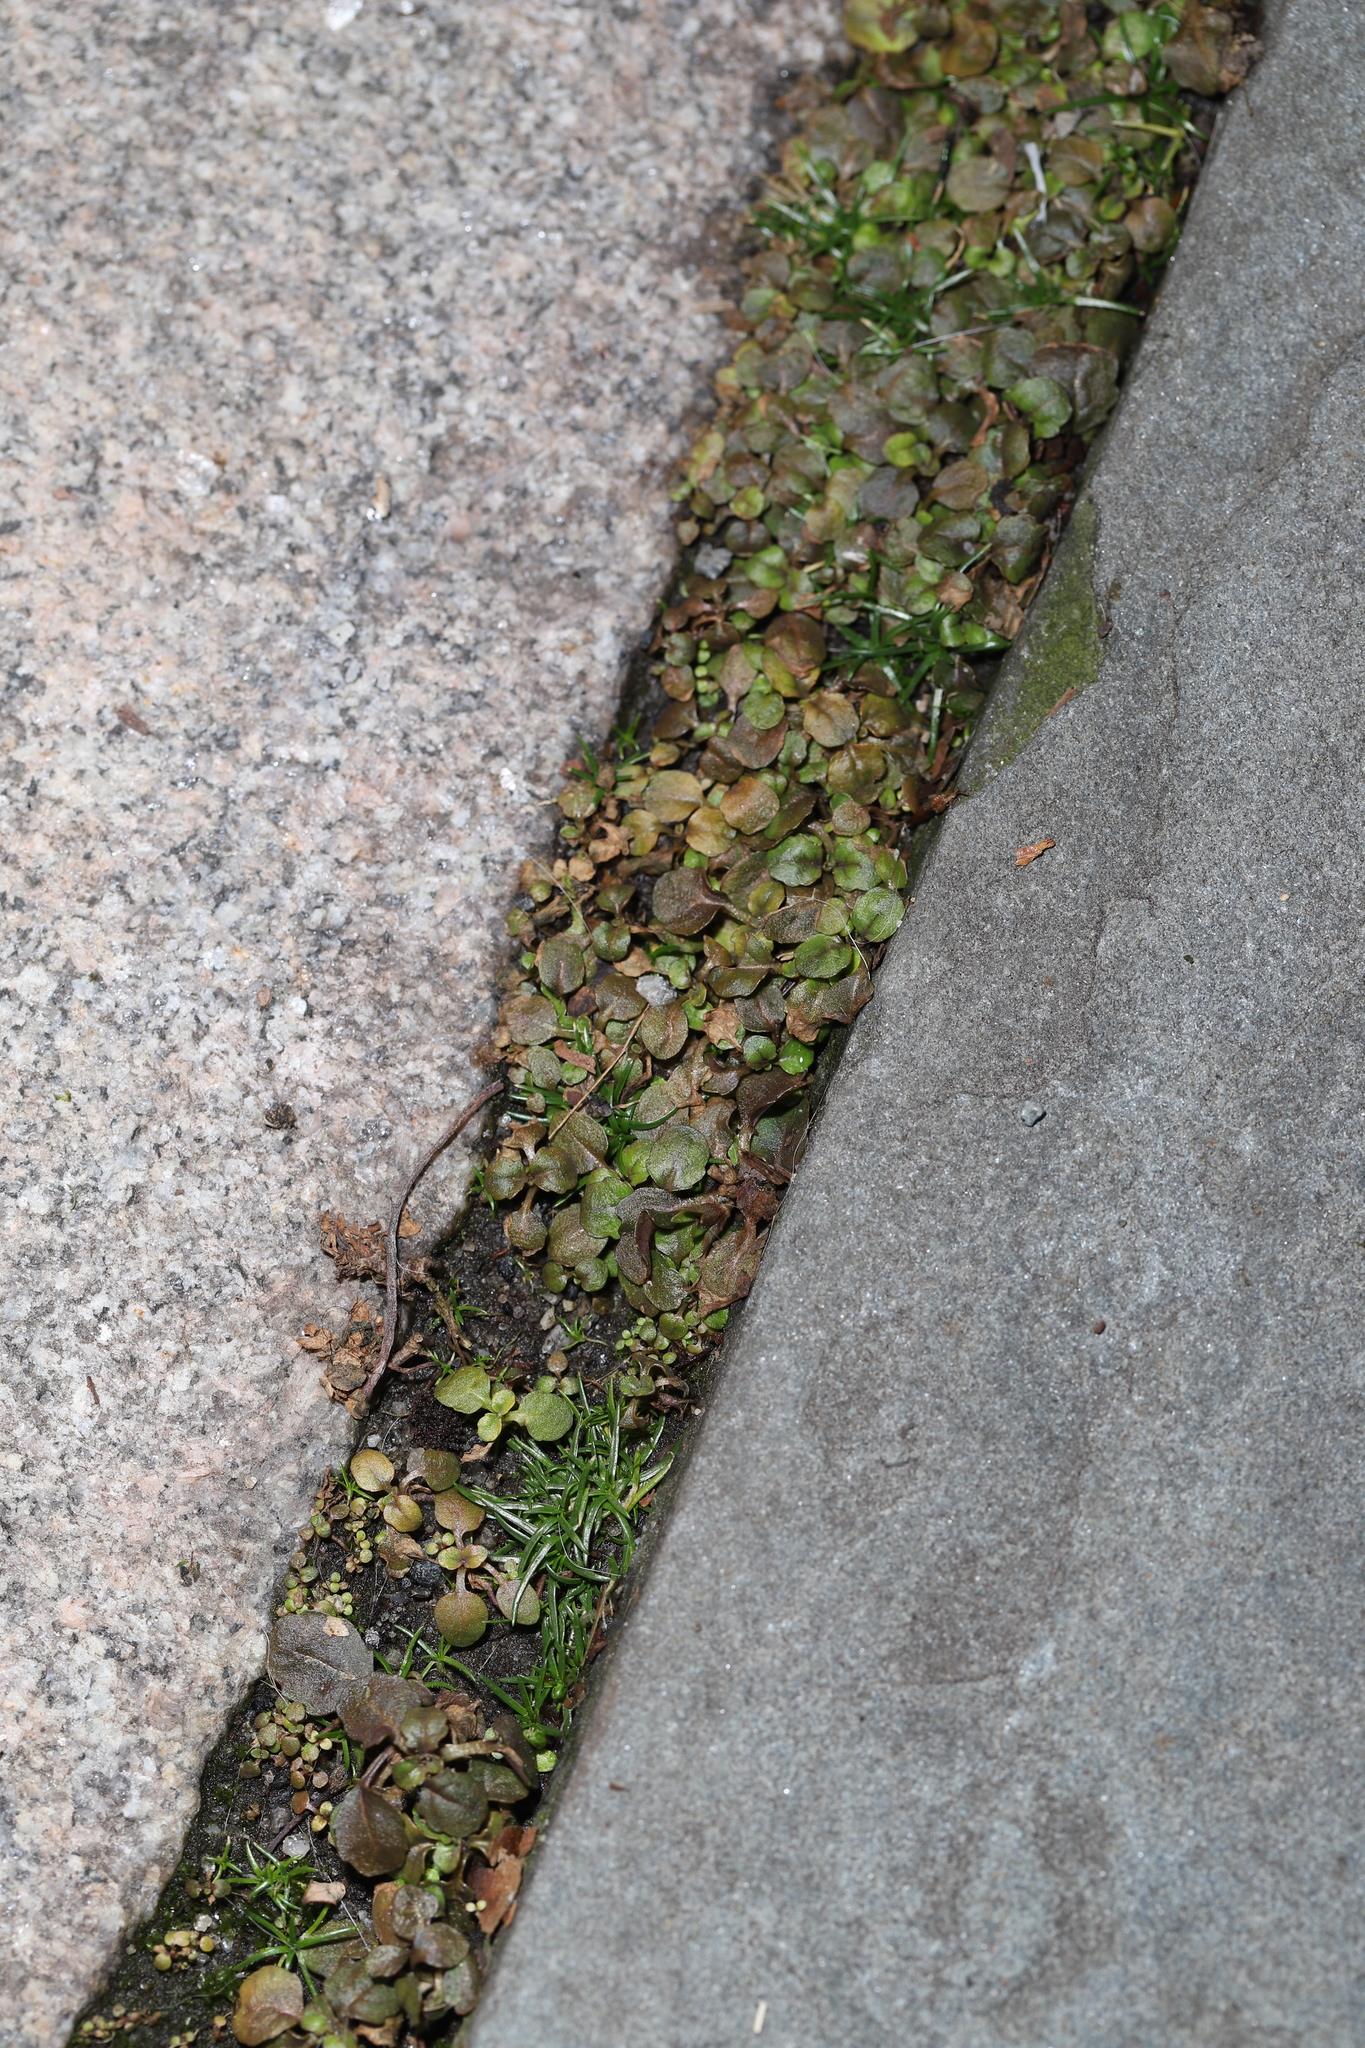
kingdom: Plantae
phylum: Tracheophyta
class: Magnoliopsida
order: Lamiales
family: Mazaceae
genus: Mazus
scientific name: Mazus pumilus
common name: Japanese mazus
